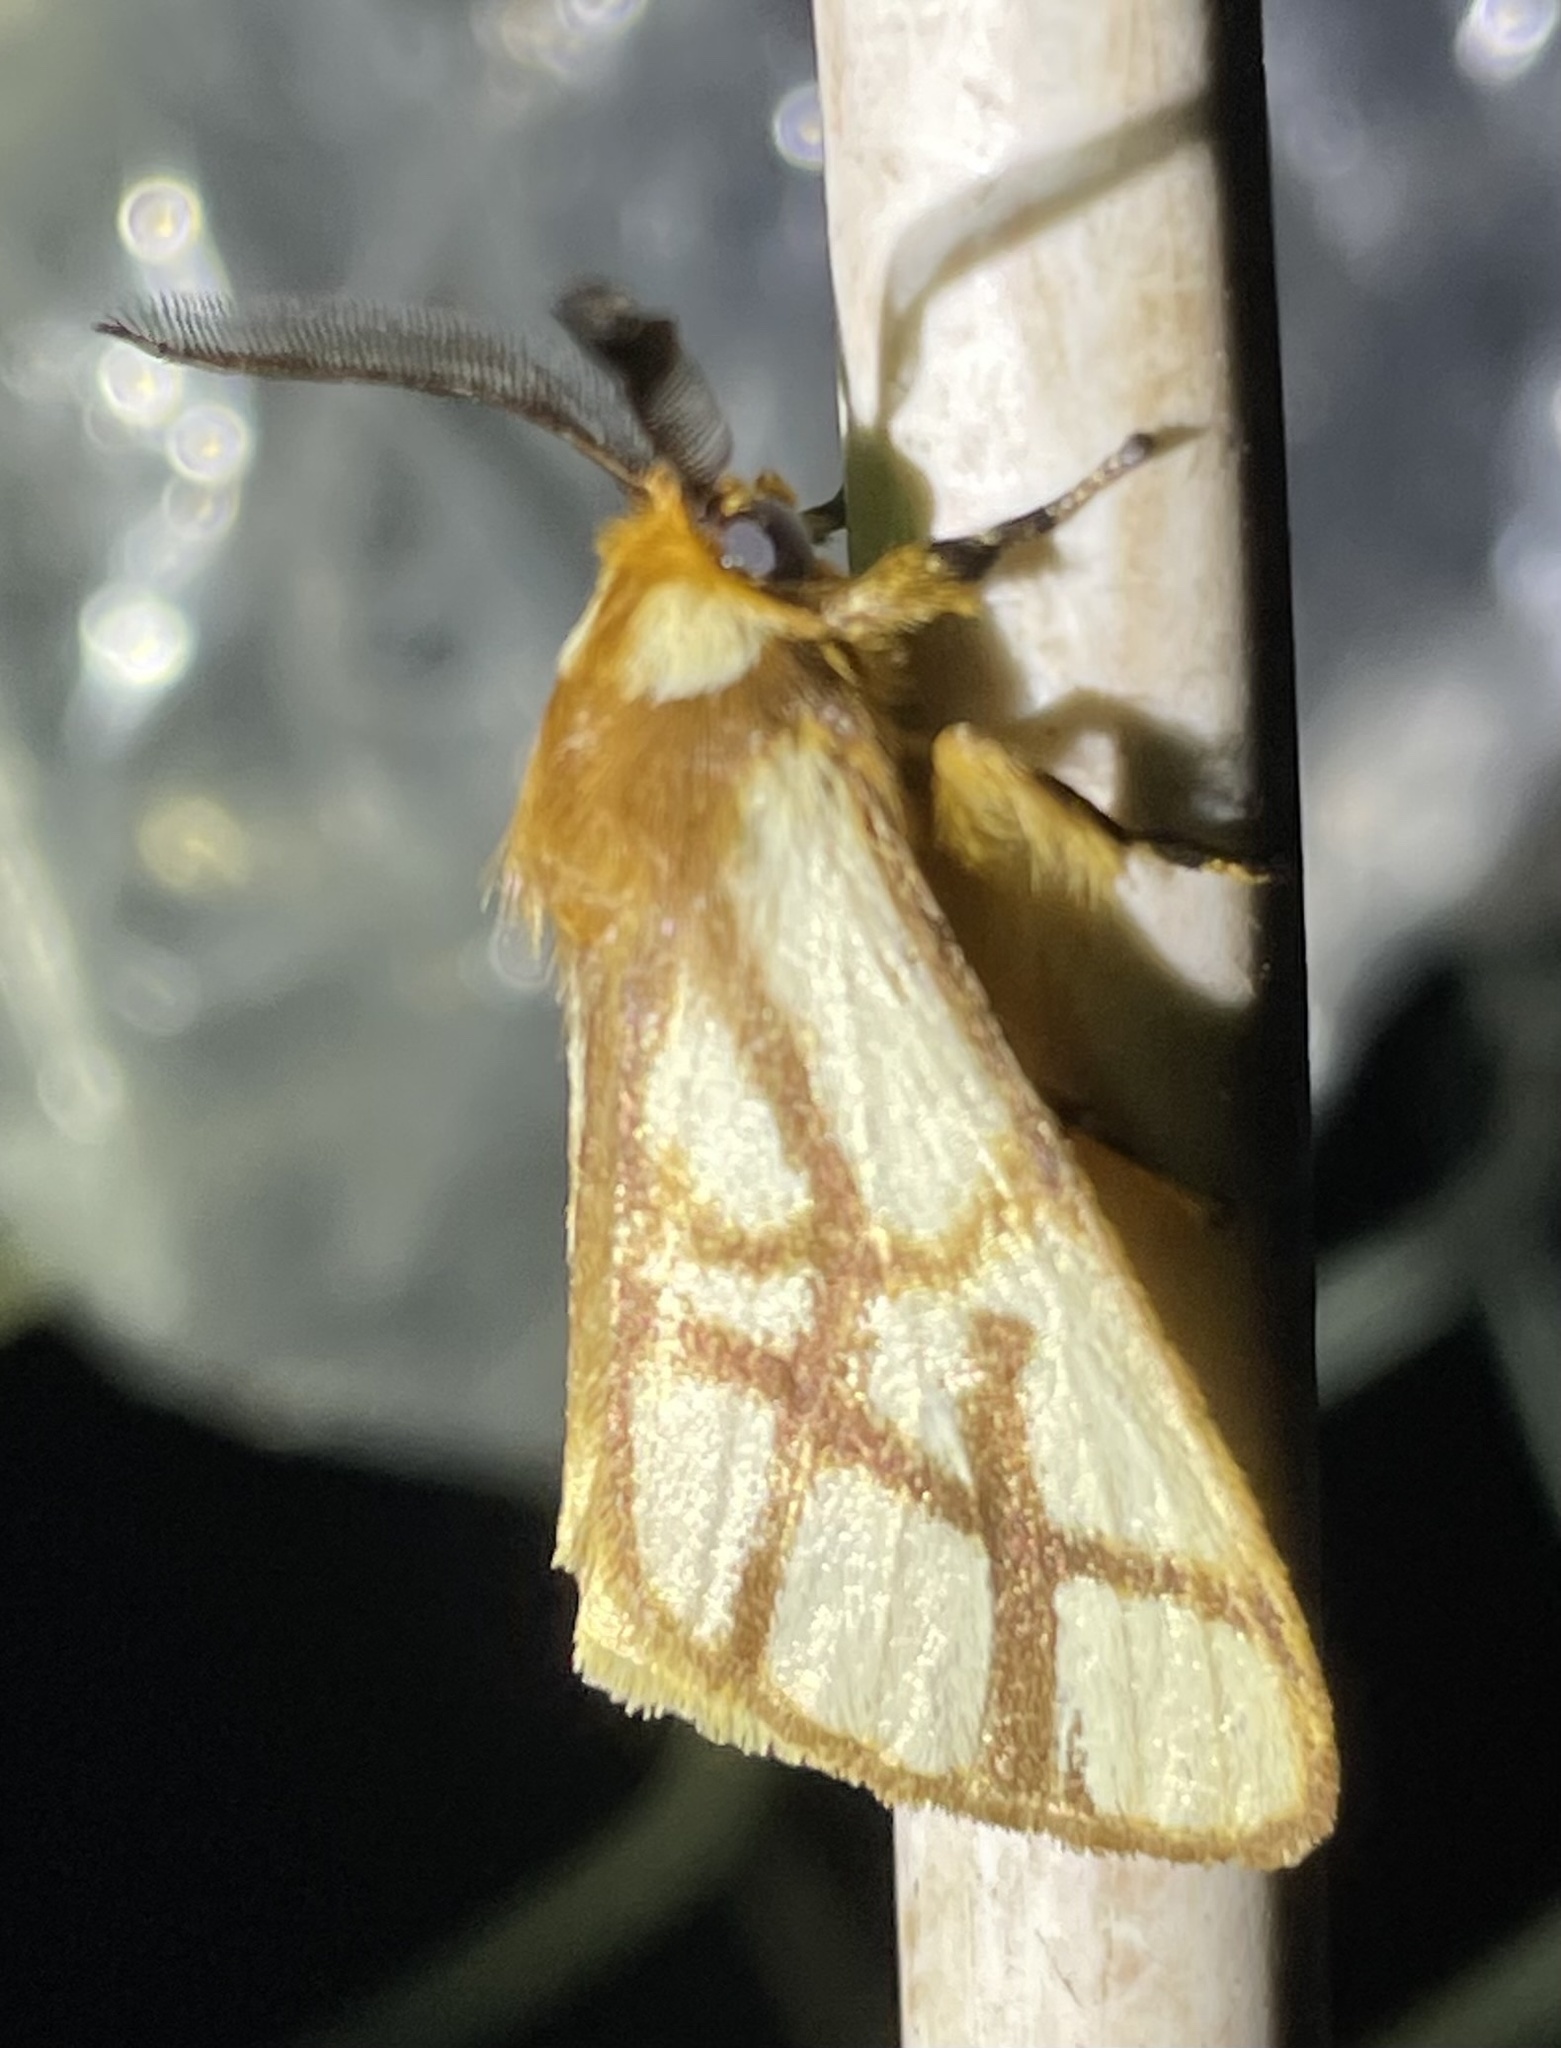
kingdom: Animalia
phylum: Arthropoda
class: Insecta
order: Lepidoptera
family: Notodontidae
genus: Anaphe
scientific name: Anaphe reticulata
